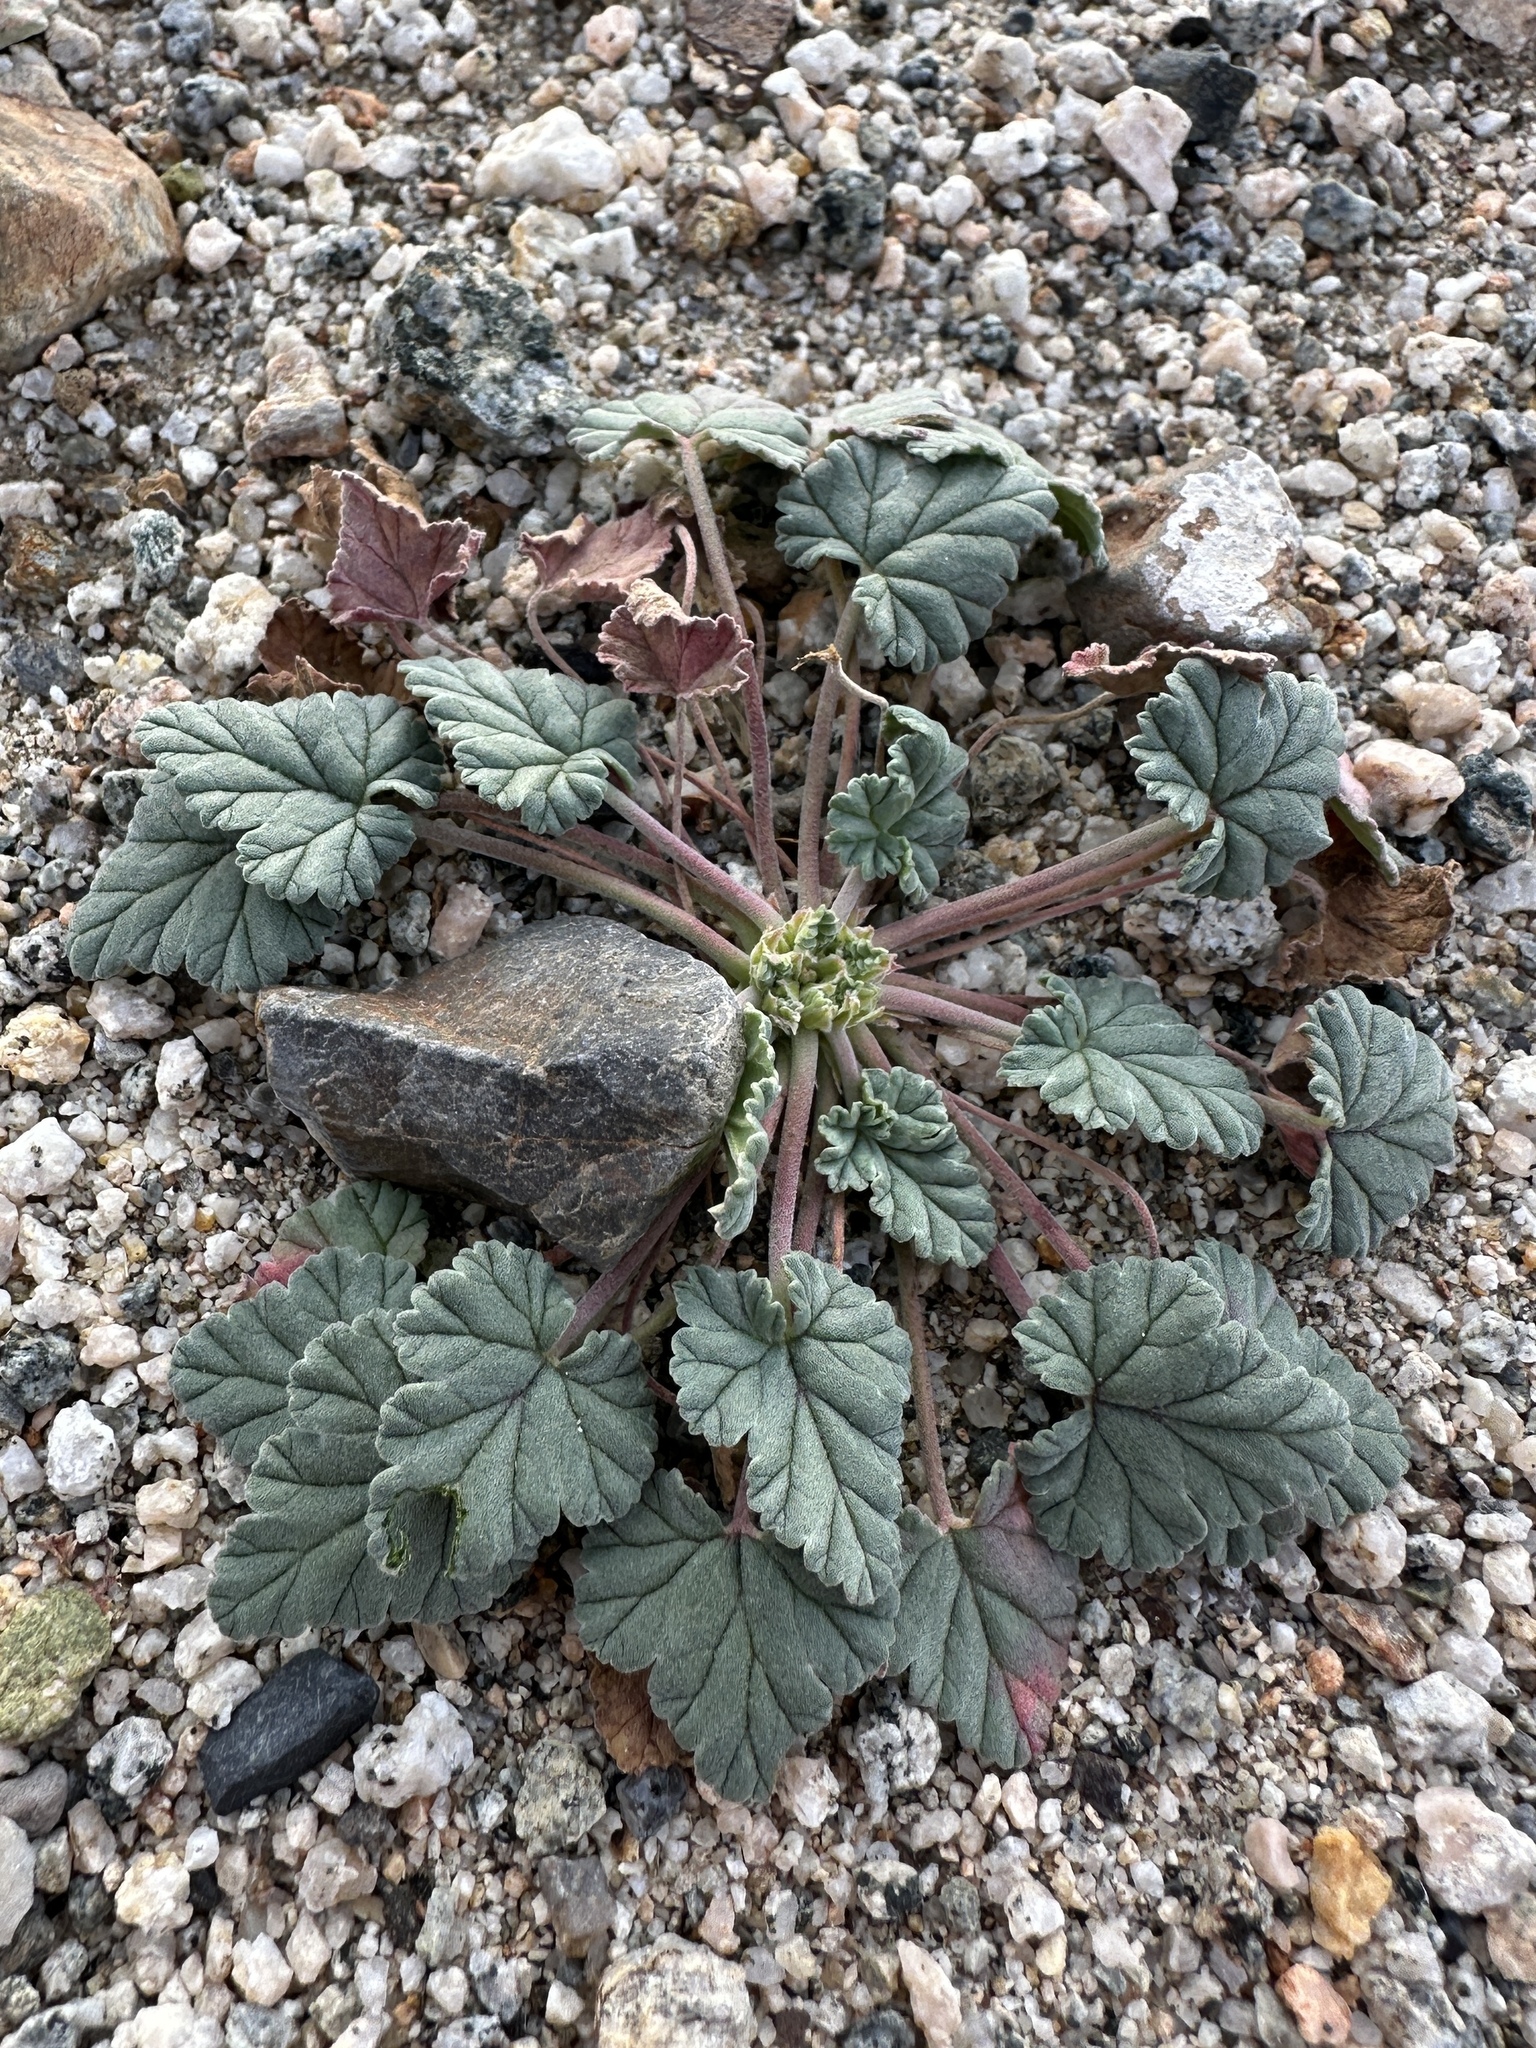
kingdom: Plantae
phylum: Tracheophyta
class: Magnoliopsida
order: Geraniales
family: Geraniaceae
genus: Erodium
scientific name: Erodium texanum
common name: Texas stork's-bill
